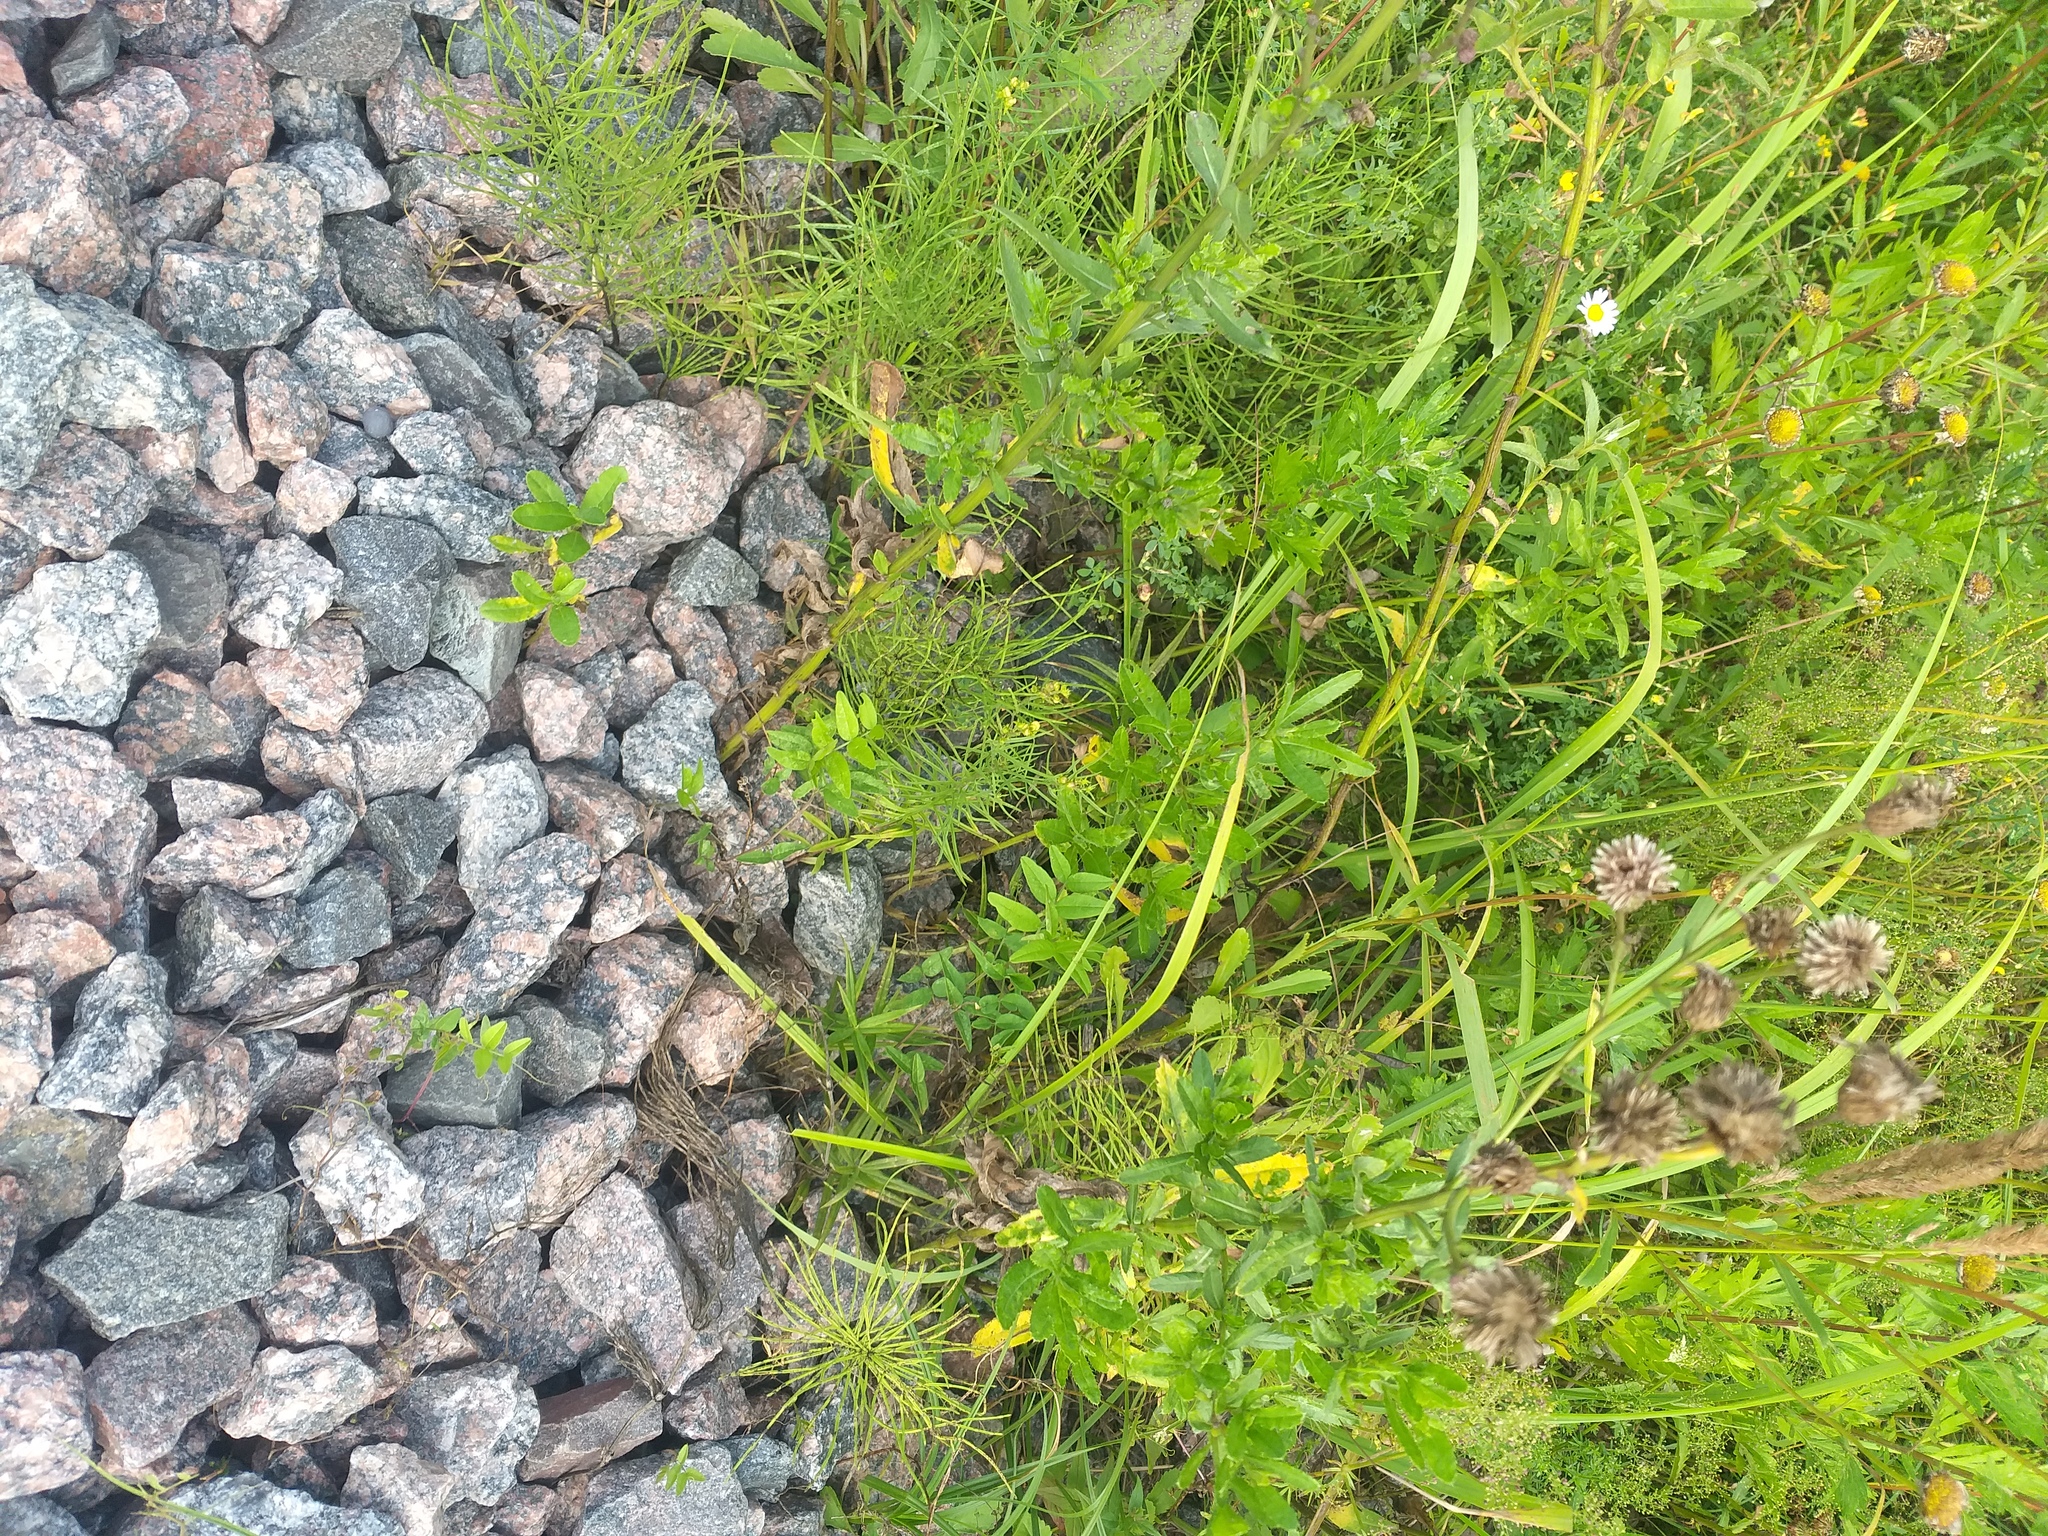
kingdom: Plantae
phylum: Tracheophyta
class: Magnoliopsida
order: Fabales
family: Fabaceae
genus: Vicia
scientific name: Vicia sepium
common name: Bush vetch
